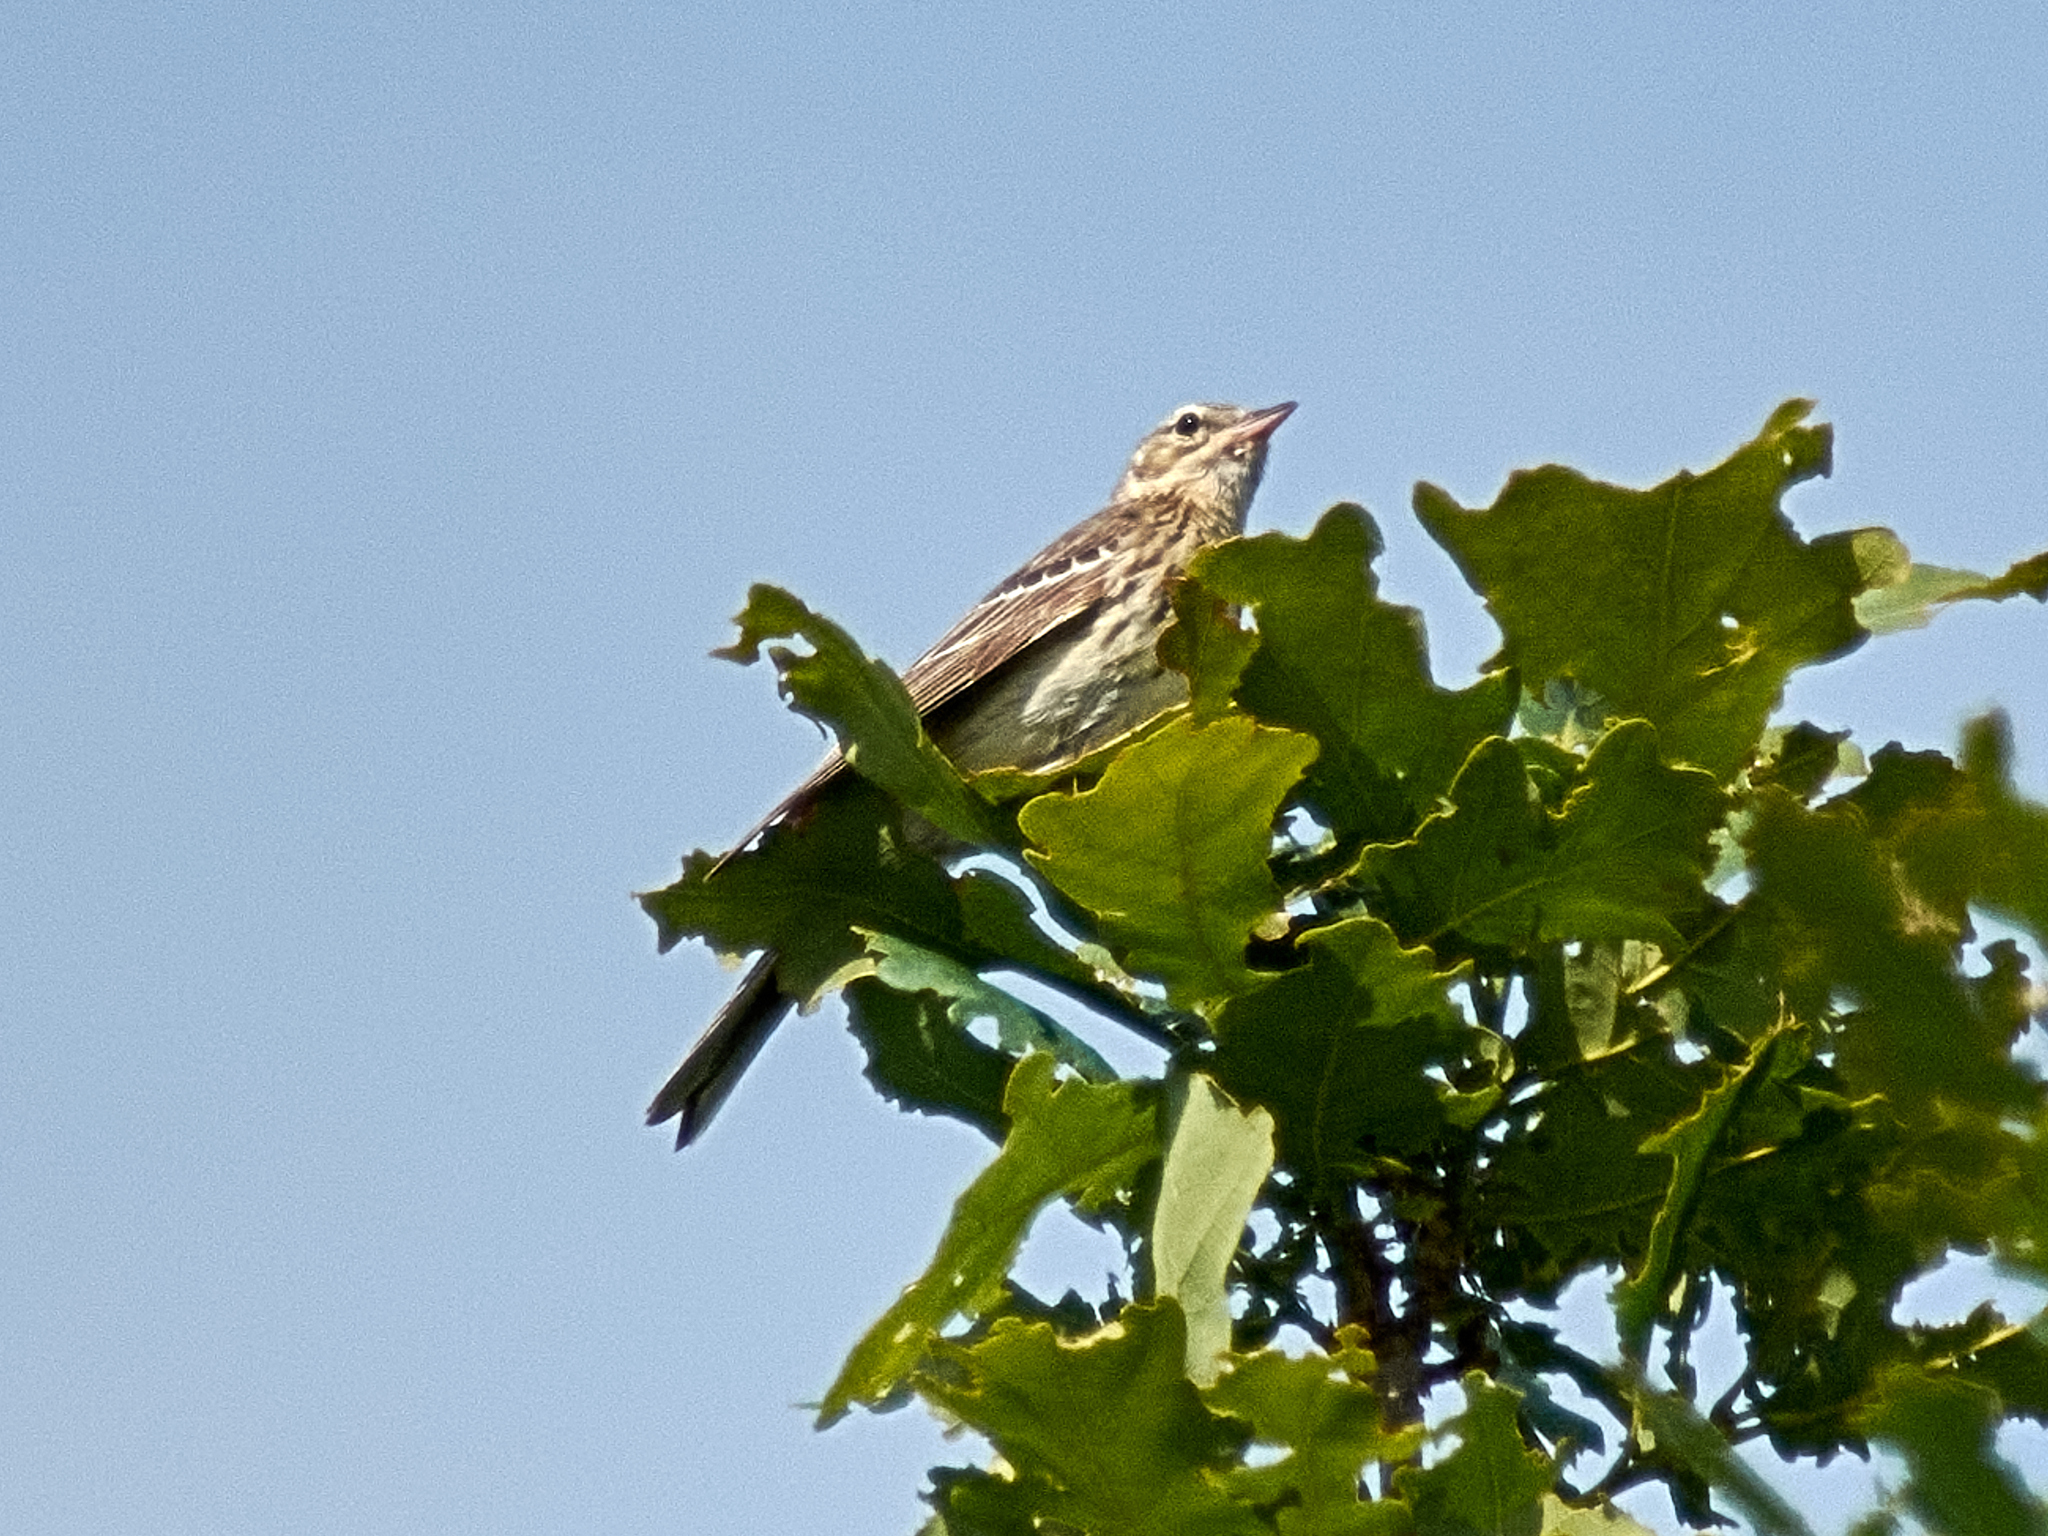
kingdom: Animalia
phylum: Chordata
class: Aves
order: Passeriformes
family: Motacillidae
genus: Anthus
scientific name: Anthus trivialis
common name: Tree pipit
